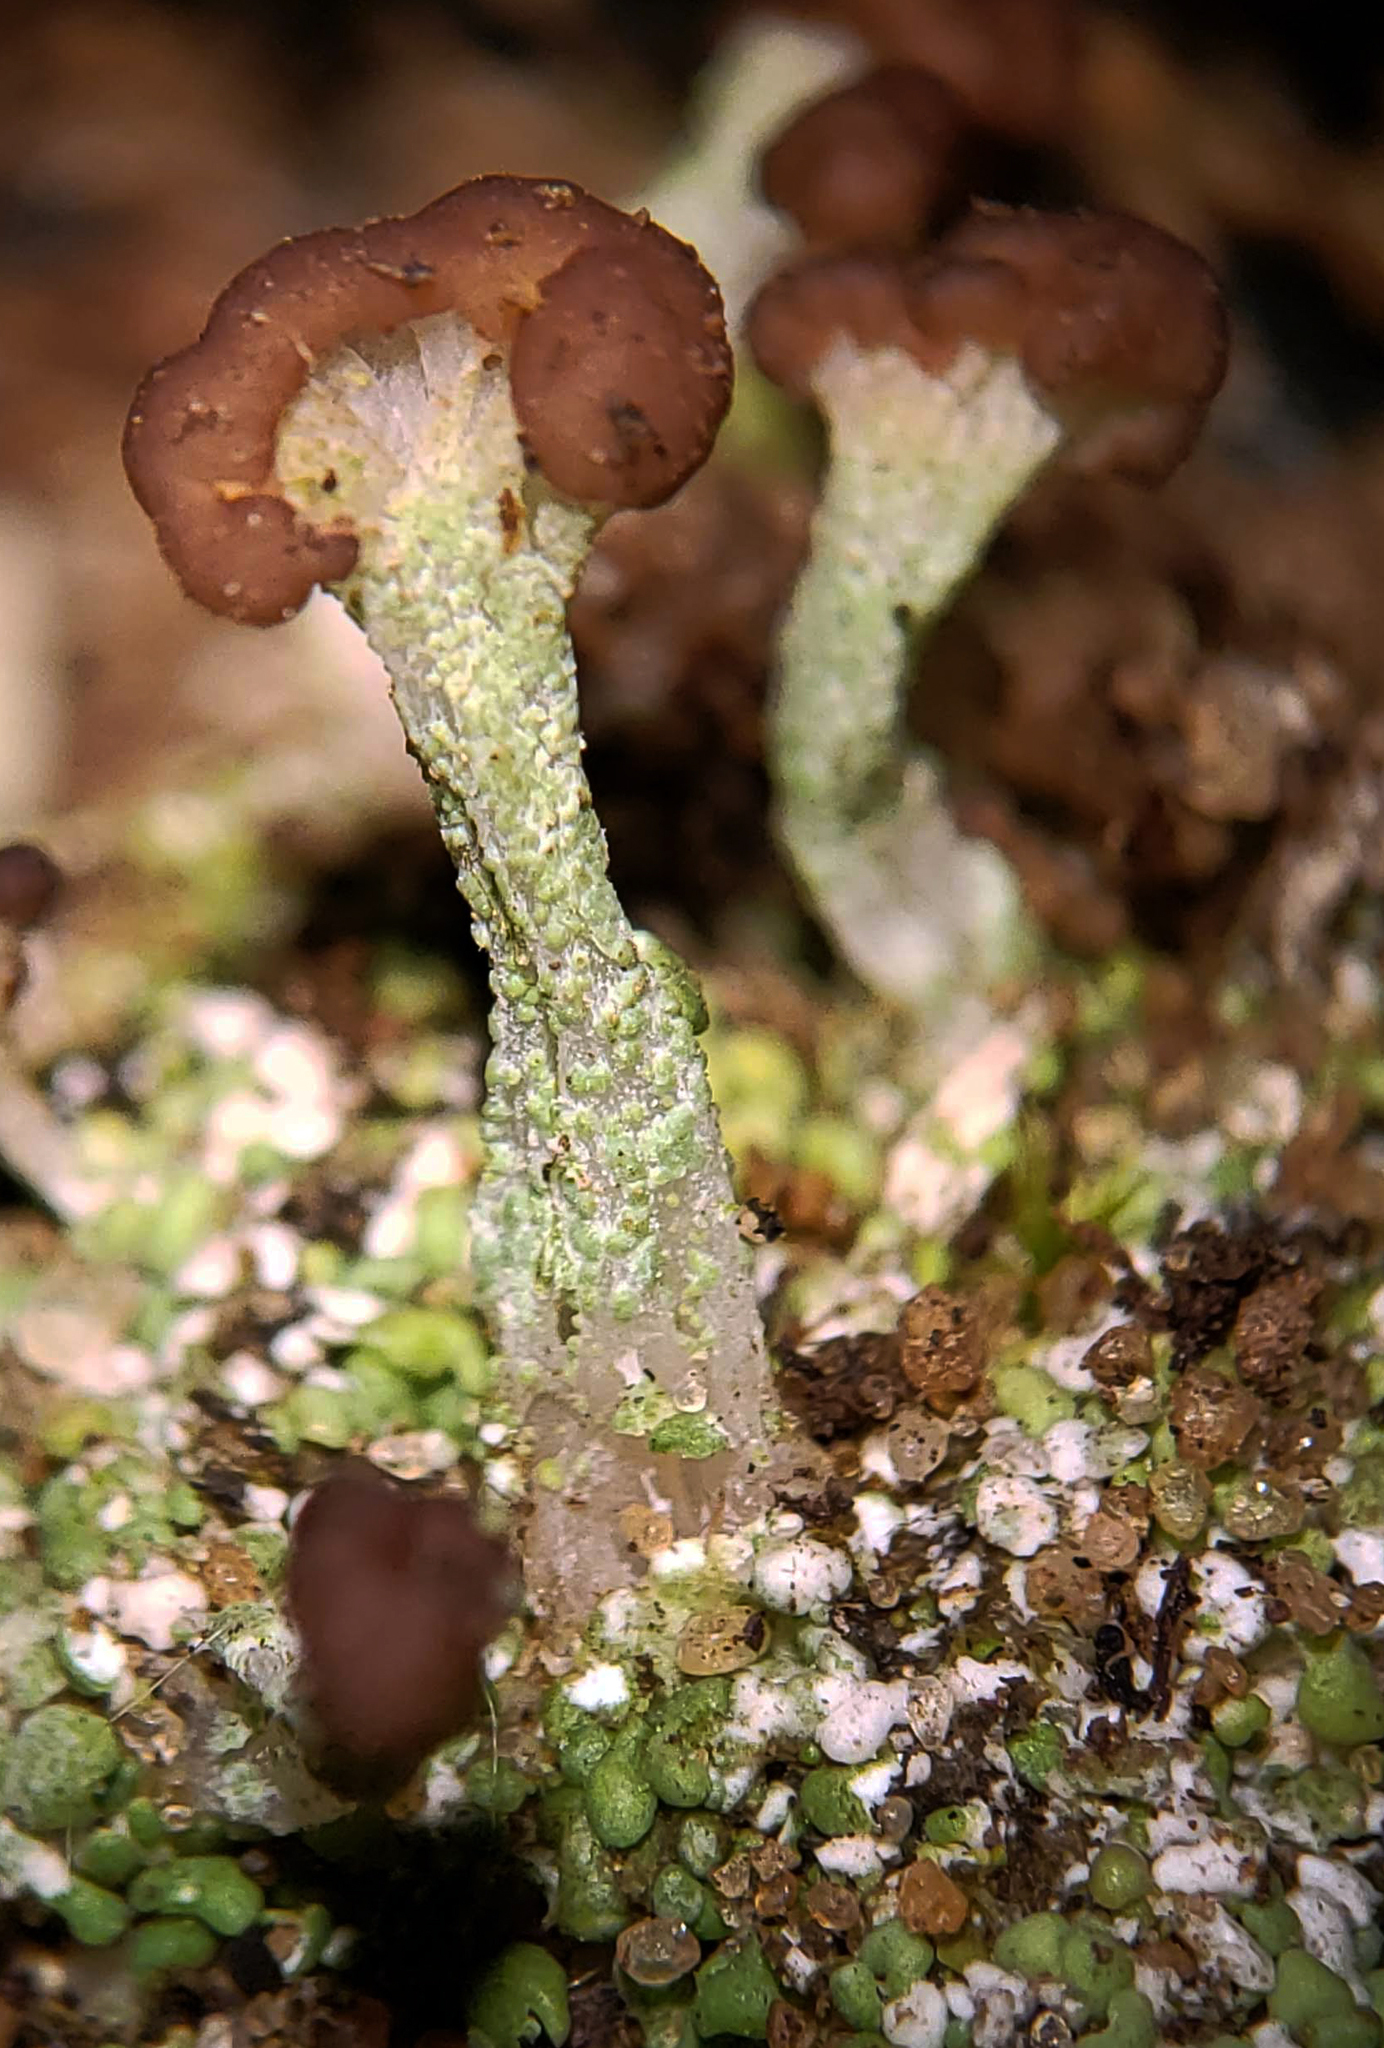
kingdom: Fungi
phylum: Ascomycota
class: Lecanoromycetes
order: Lecanorales
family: Cladoniaceae
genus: Cladonia
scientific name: Cladonia peziziformis
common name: Cup lichen
